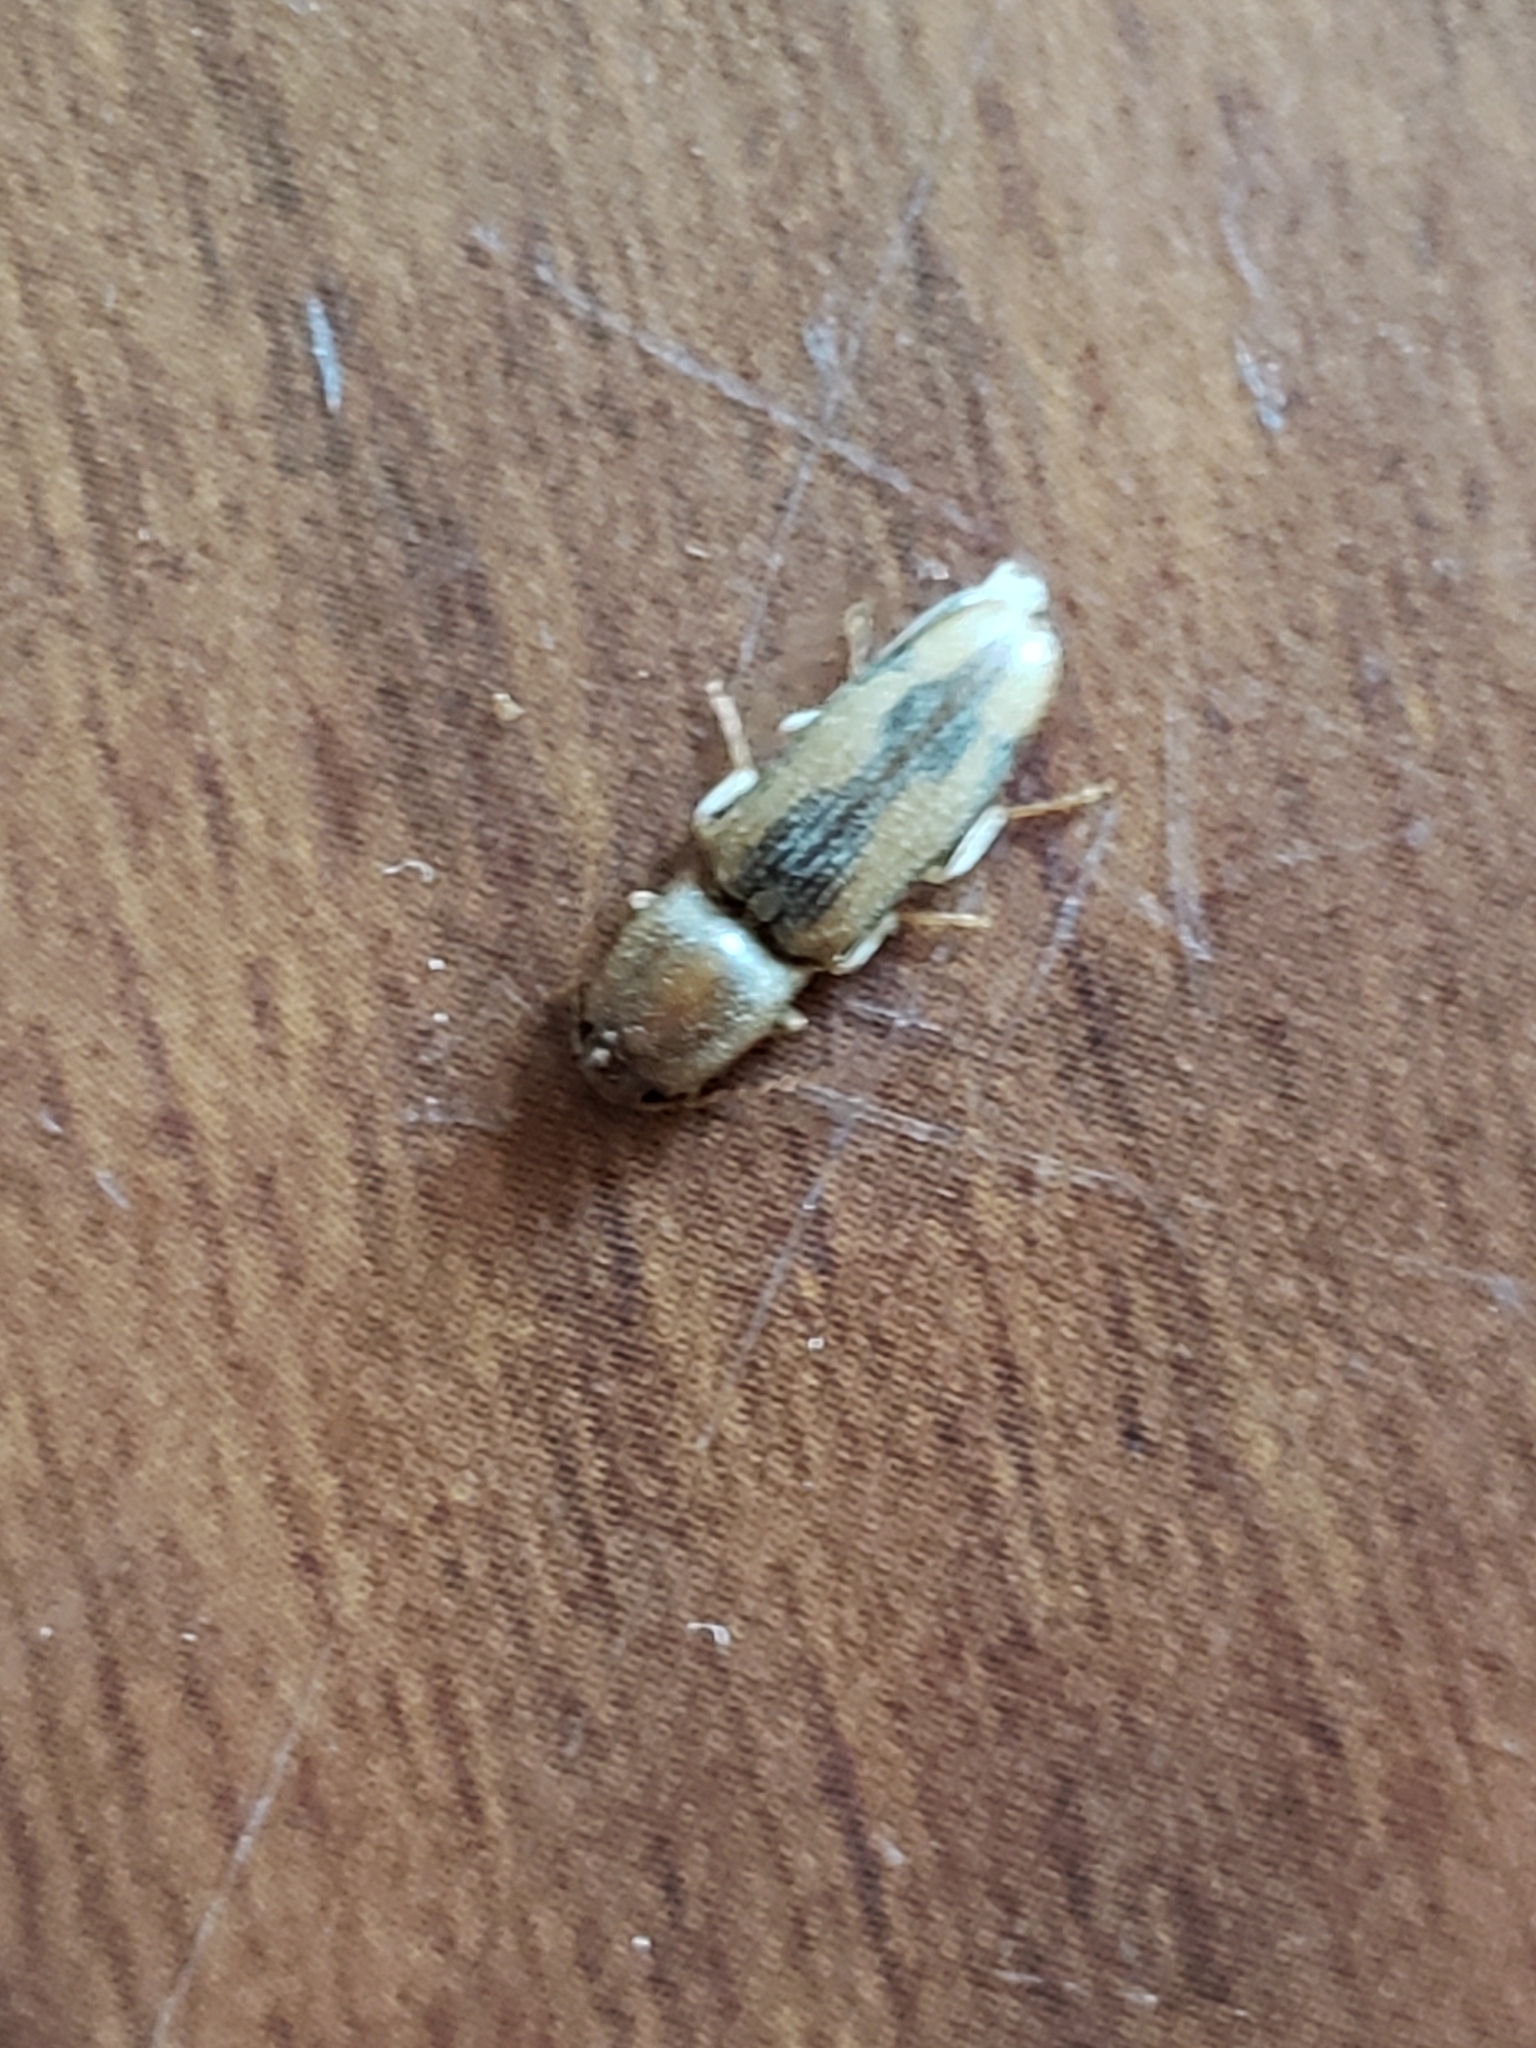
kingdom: Animalia
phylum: Arthropoda
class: Insecta
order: Coleoptera
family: Elateridae
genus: Monocrepidius
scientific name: Monocrepidius
